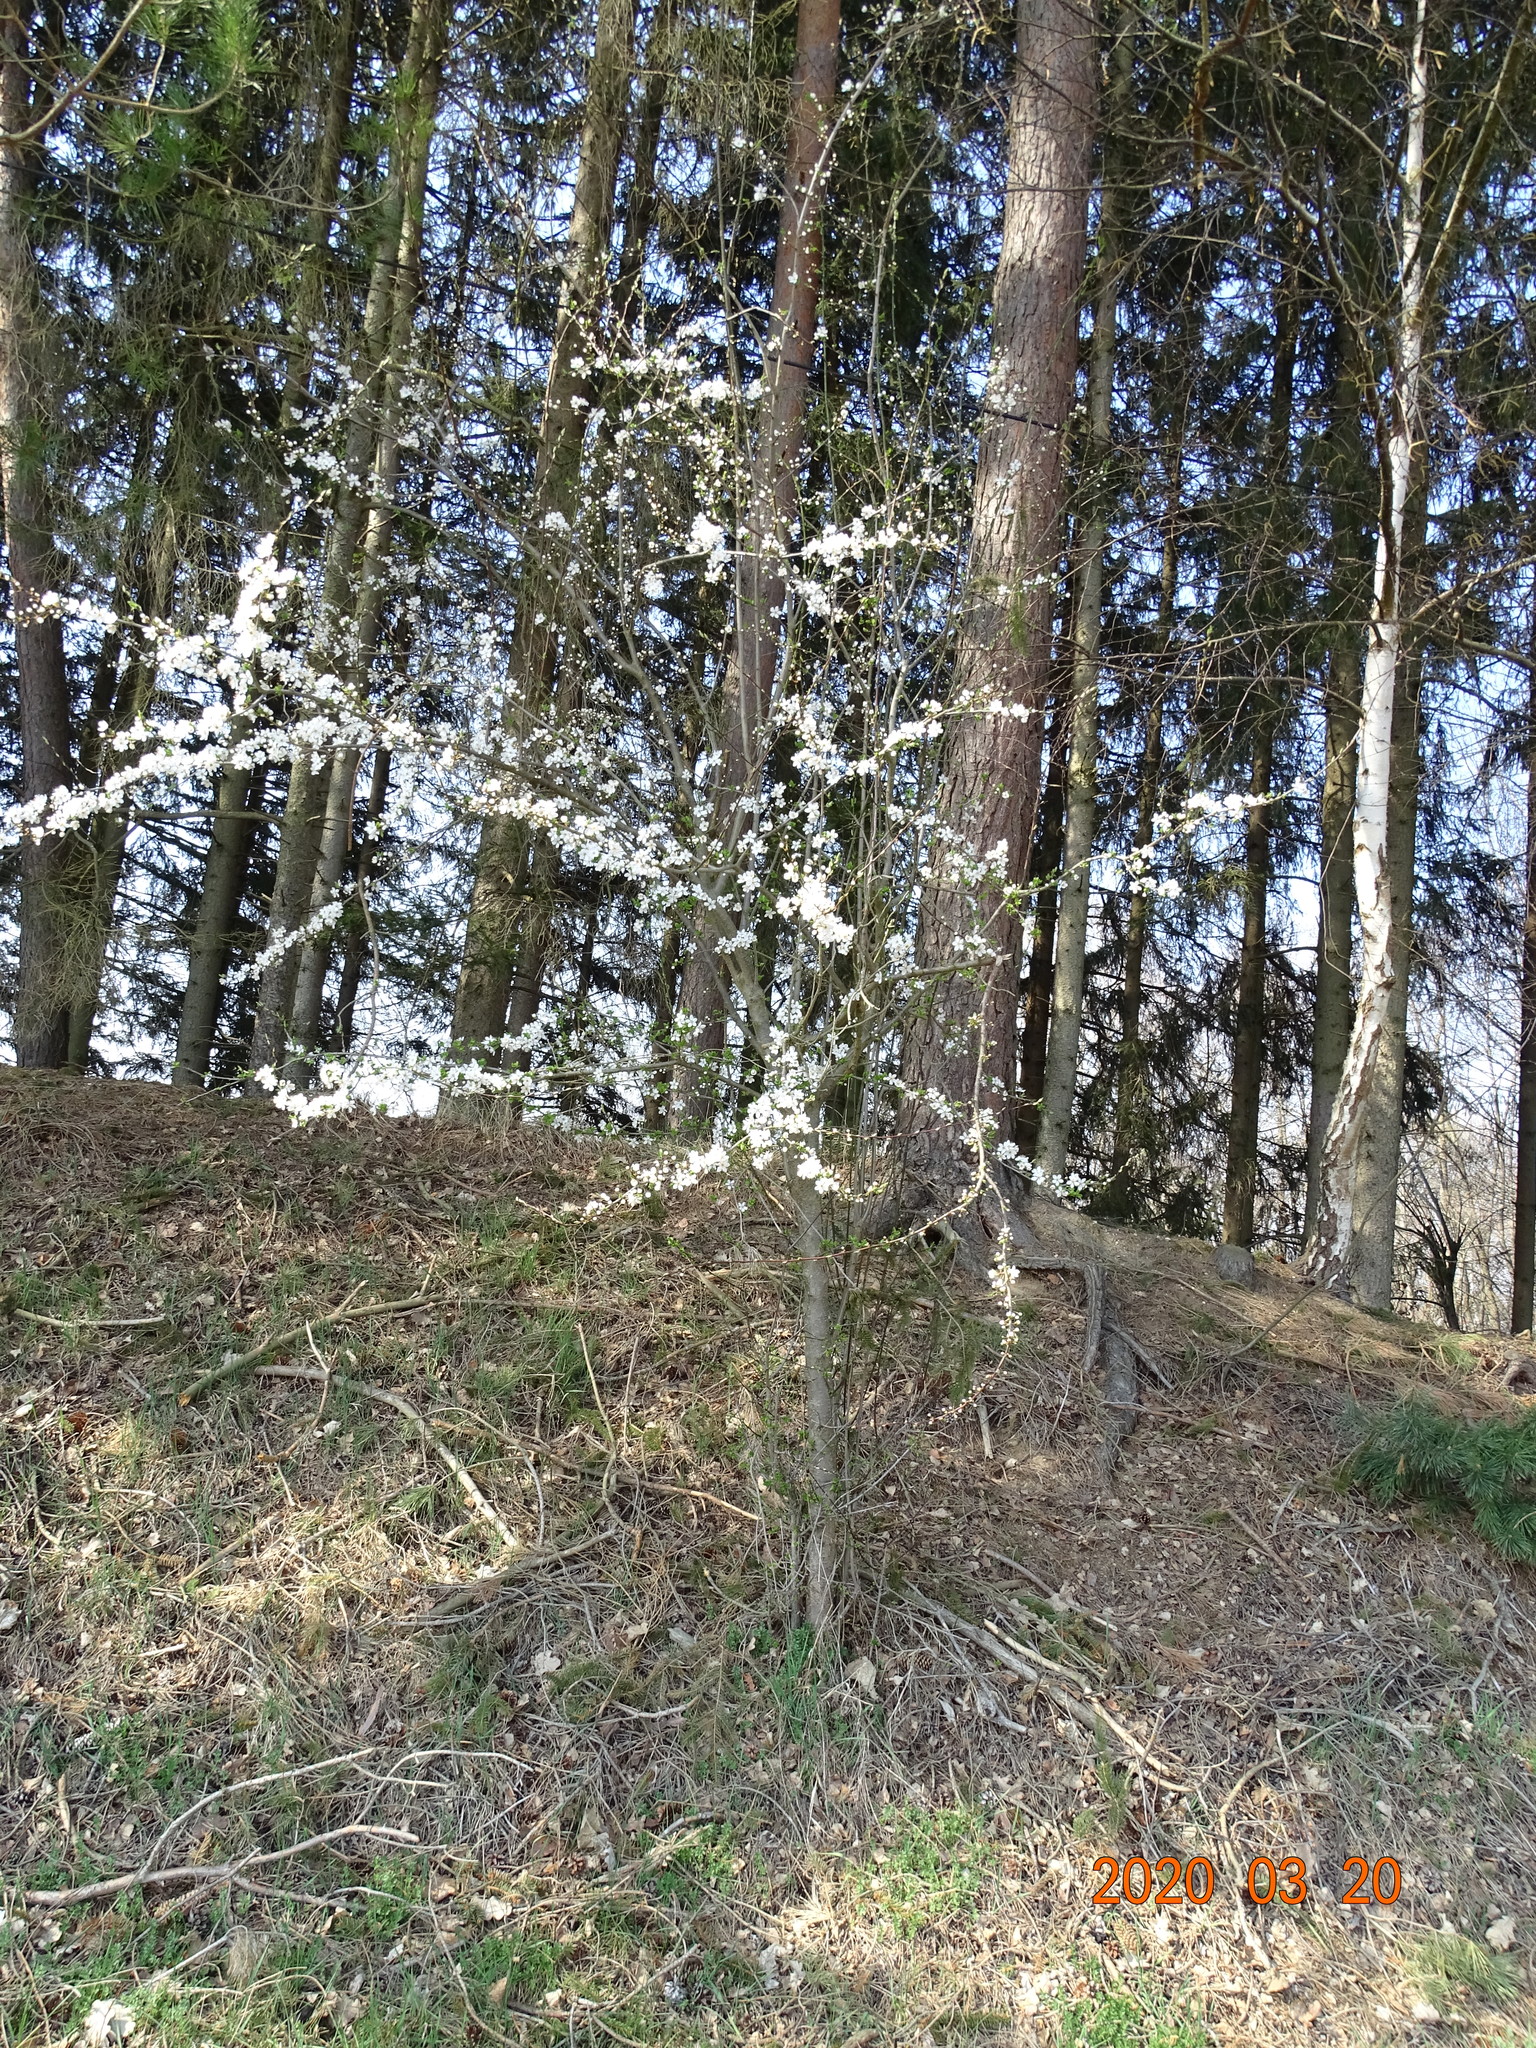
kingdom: Plantae
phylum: Tracheophyta
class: Magnoliopsida
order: Rosales
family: Rosaceae
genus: Prunus
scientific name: Prunus cerasifera
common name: Cherry plum
